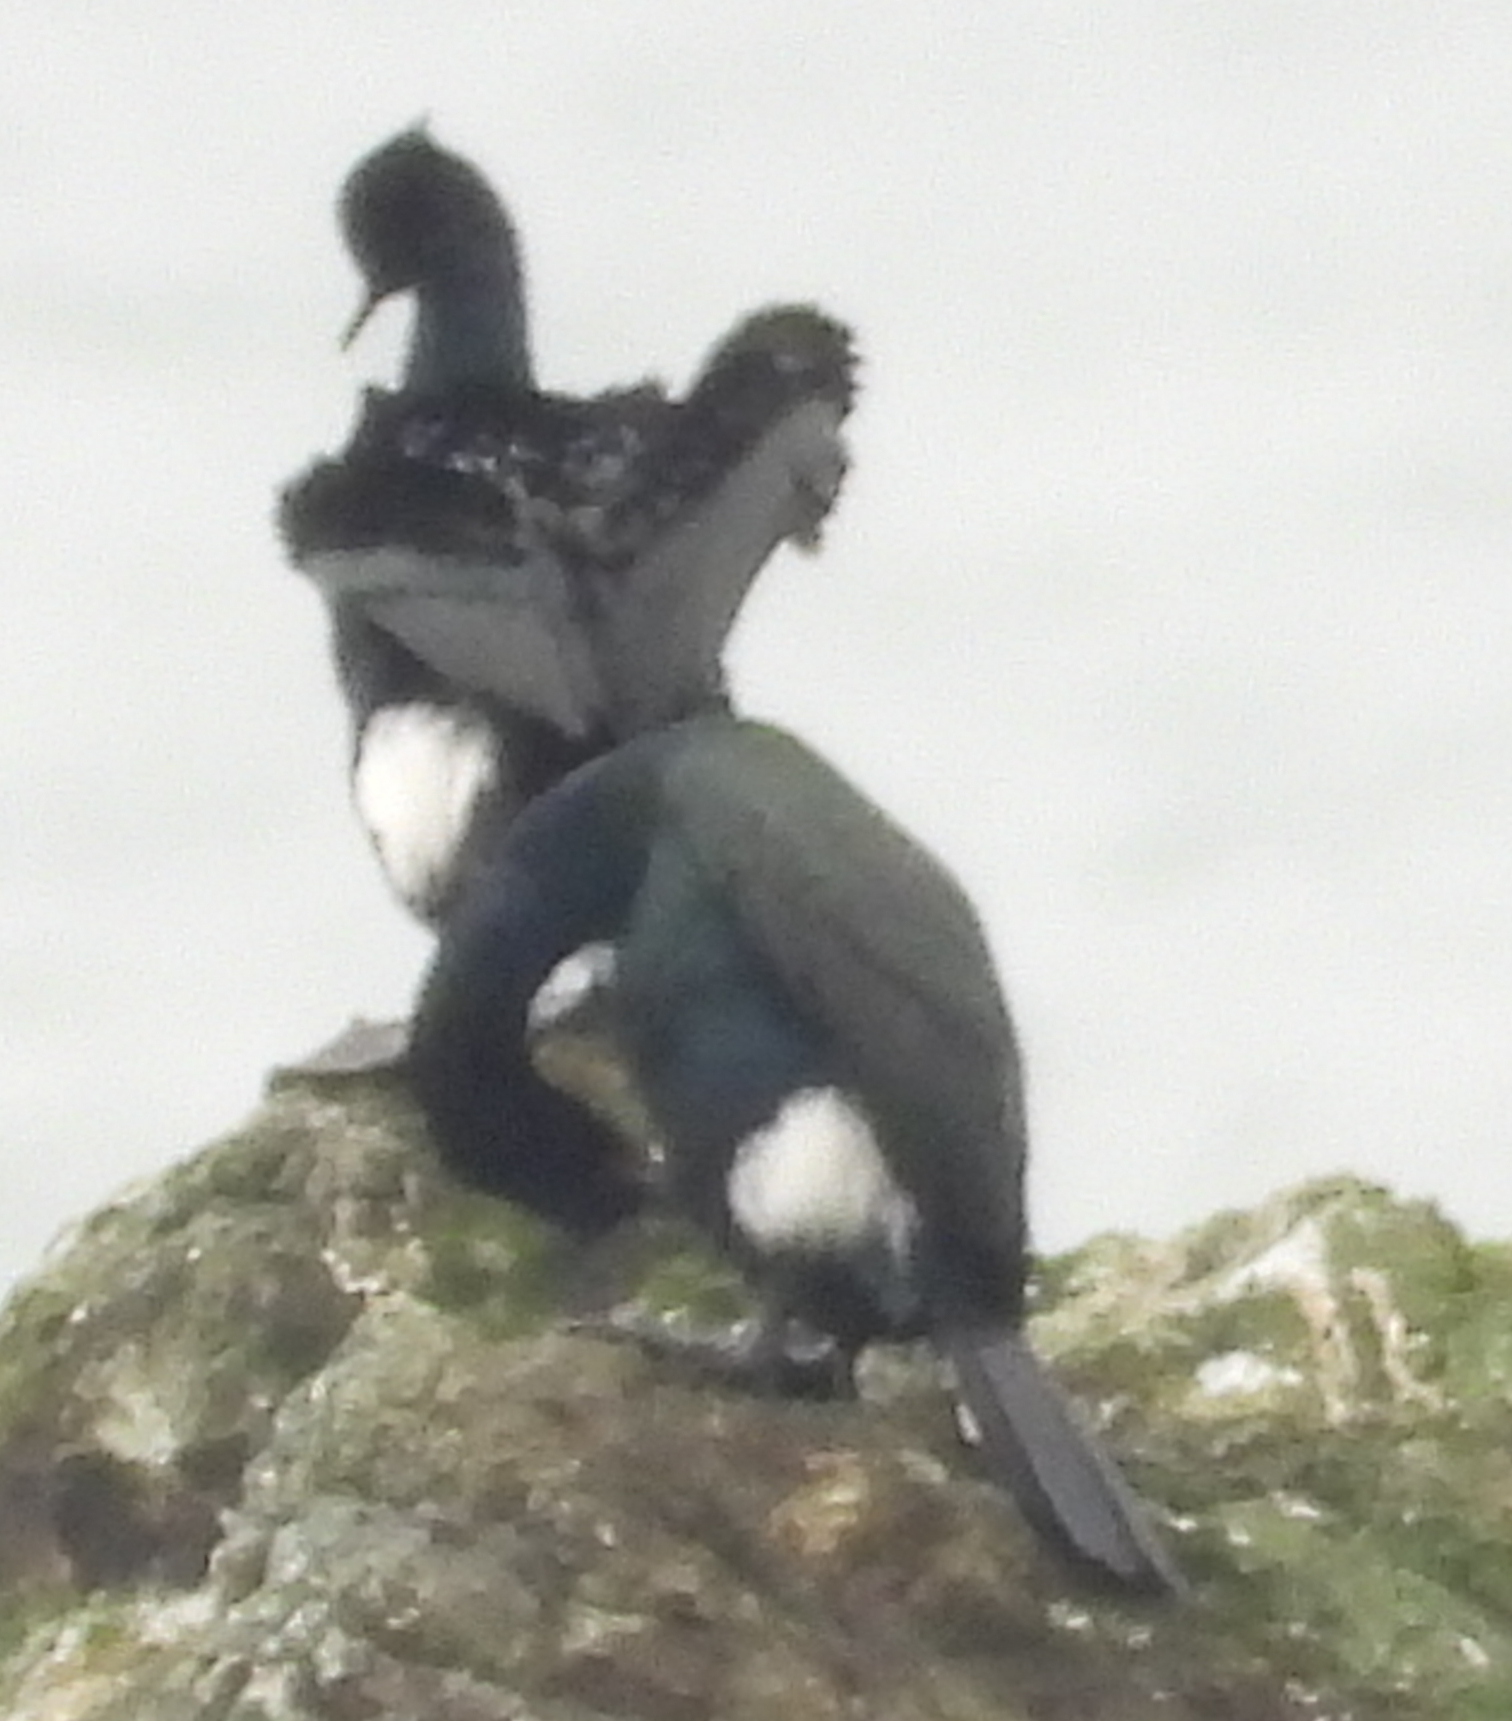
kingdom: Animalia
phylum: Chordata
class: Aves
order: Suliformes
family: Phalacrocoracidae
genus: Phalacrocorax
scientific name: Phalacrocorax pelagicus
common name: Pelagic cormorant
